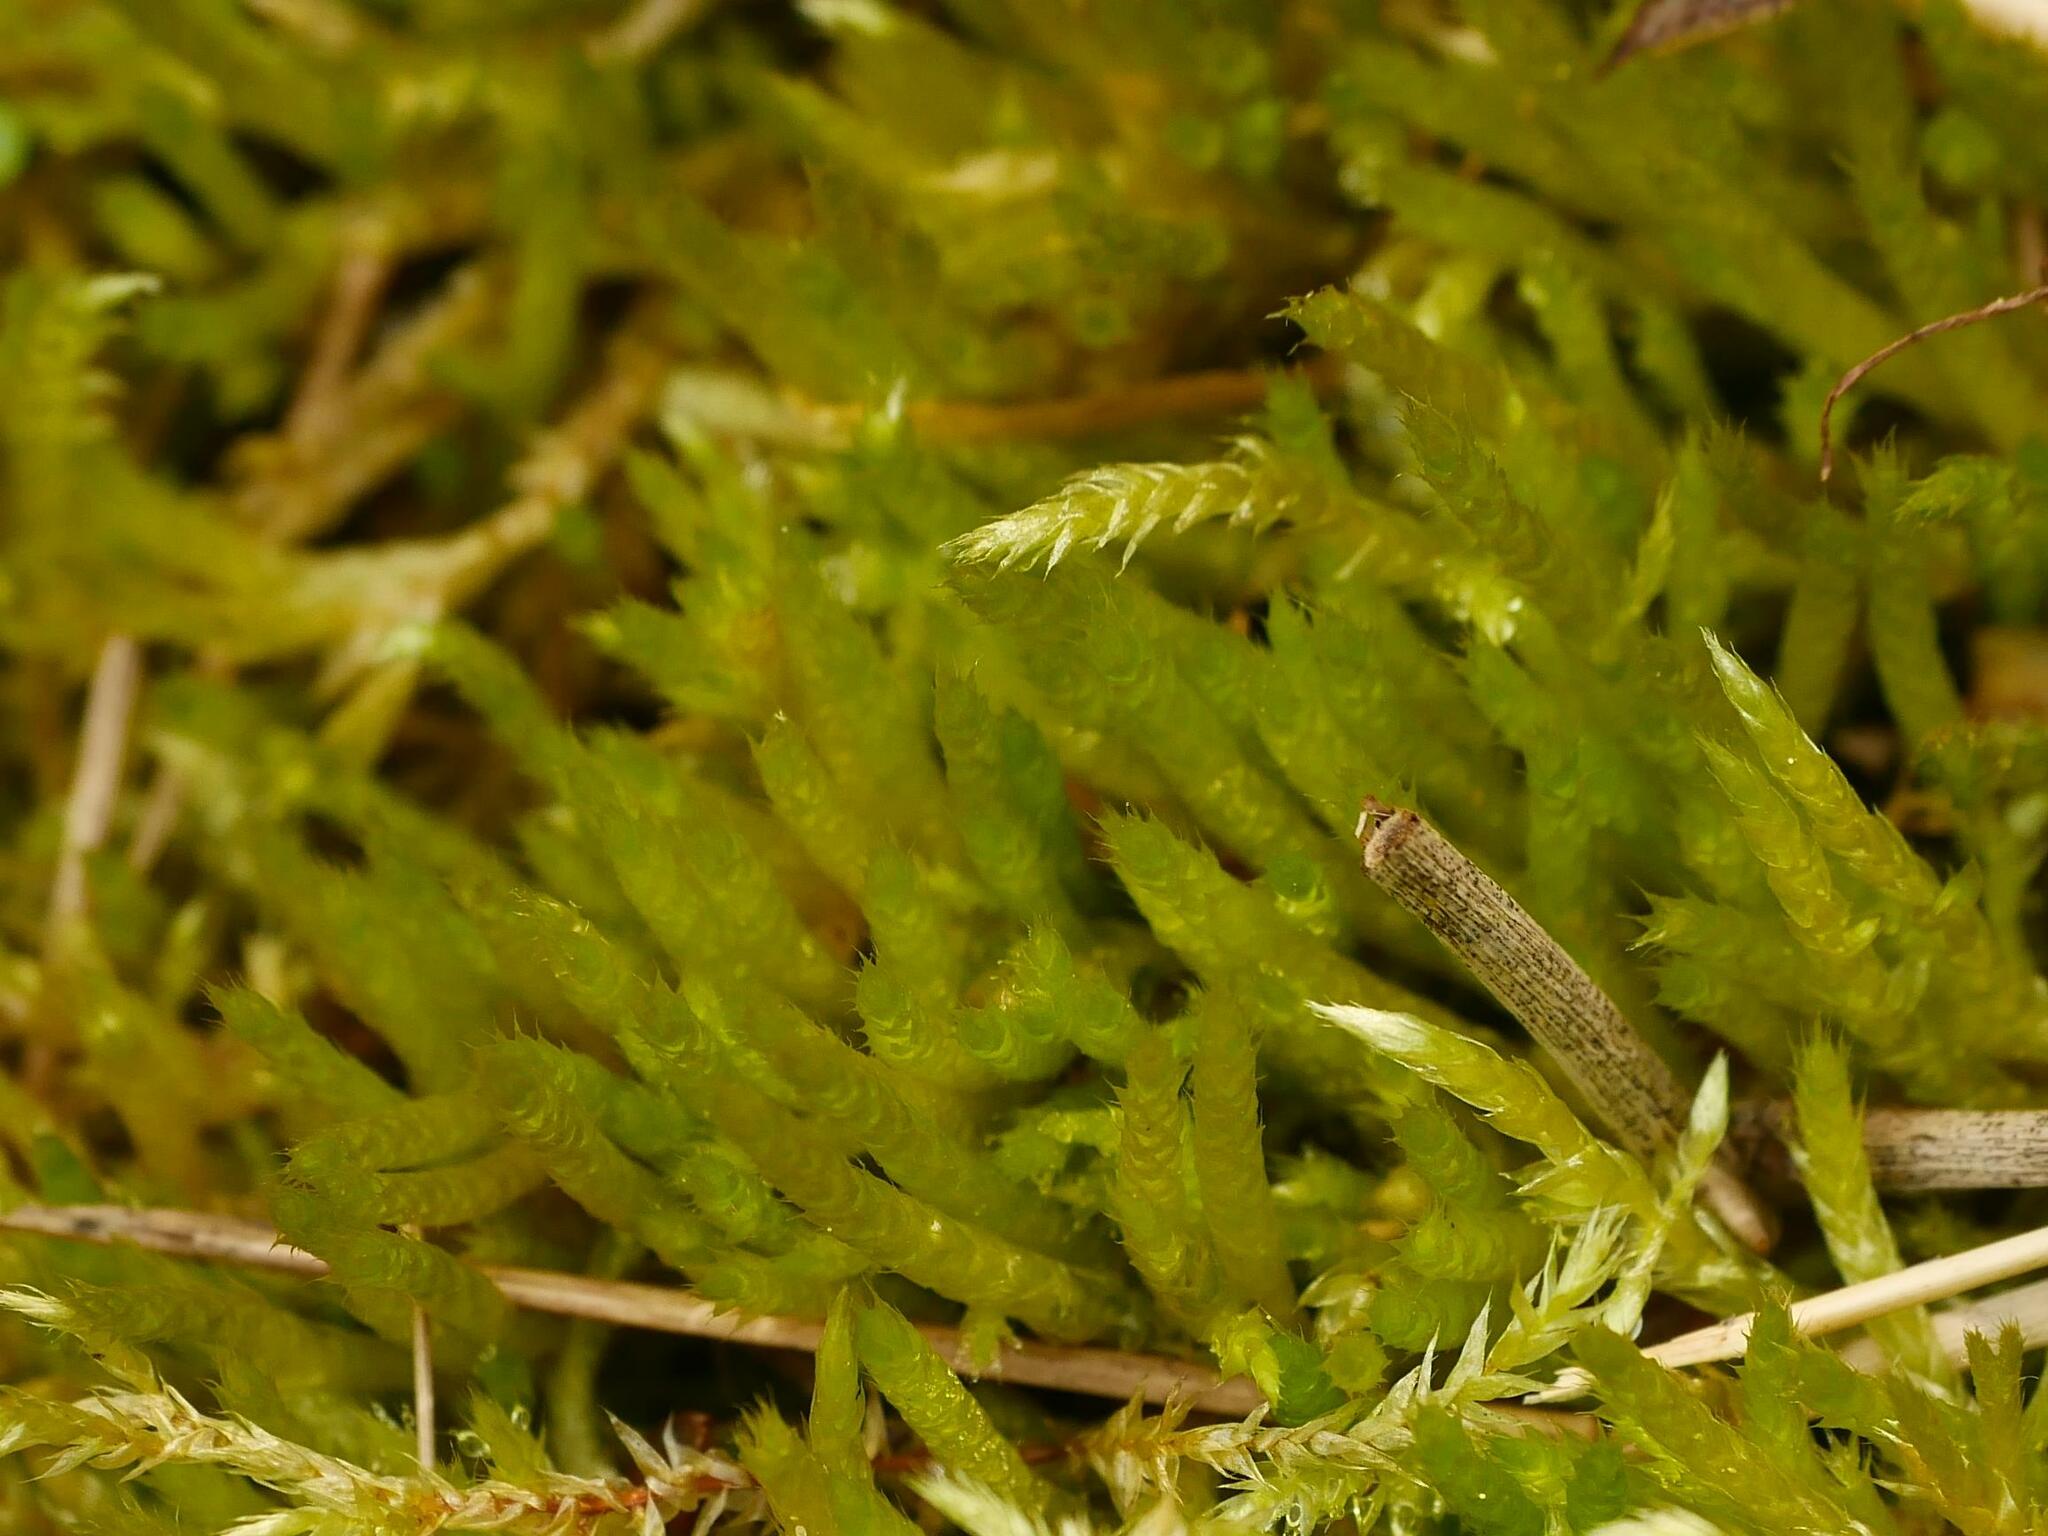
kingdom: Plantae
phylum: Bryophyta
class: Bryopsida
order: Hypnales
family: Brachytheciaceae
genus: Brachythecium
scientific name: Brachythecium albicans
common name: Whitish ragged moss
